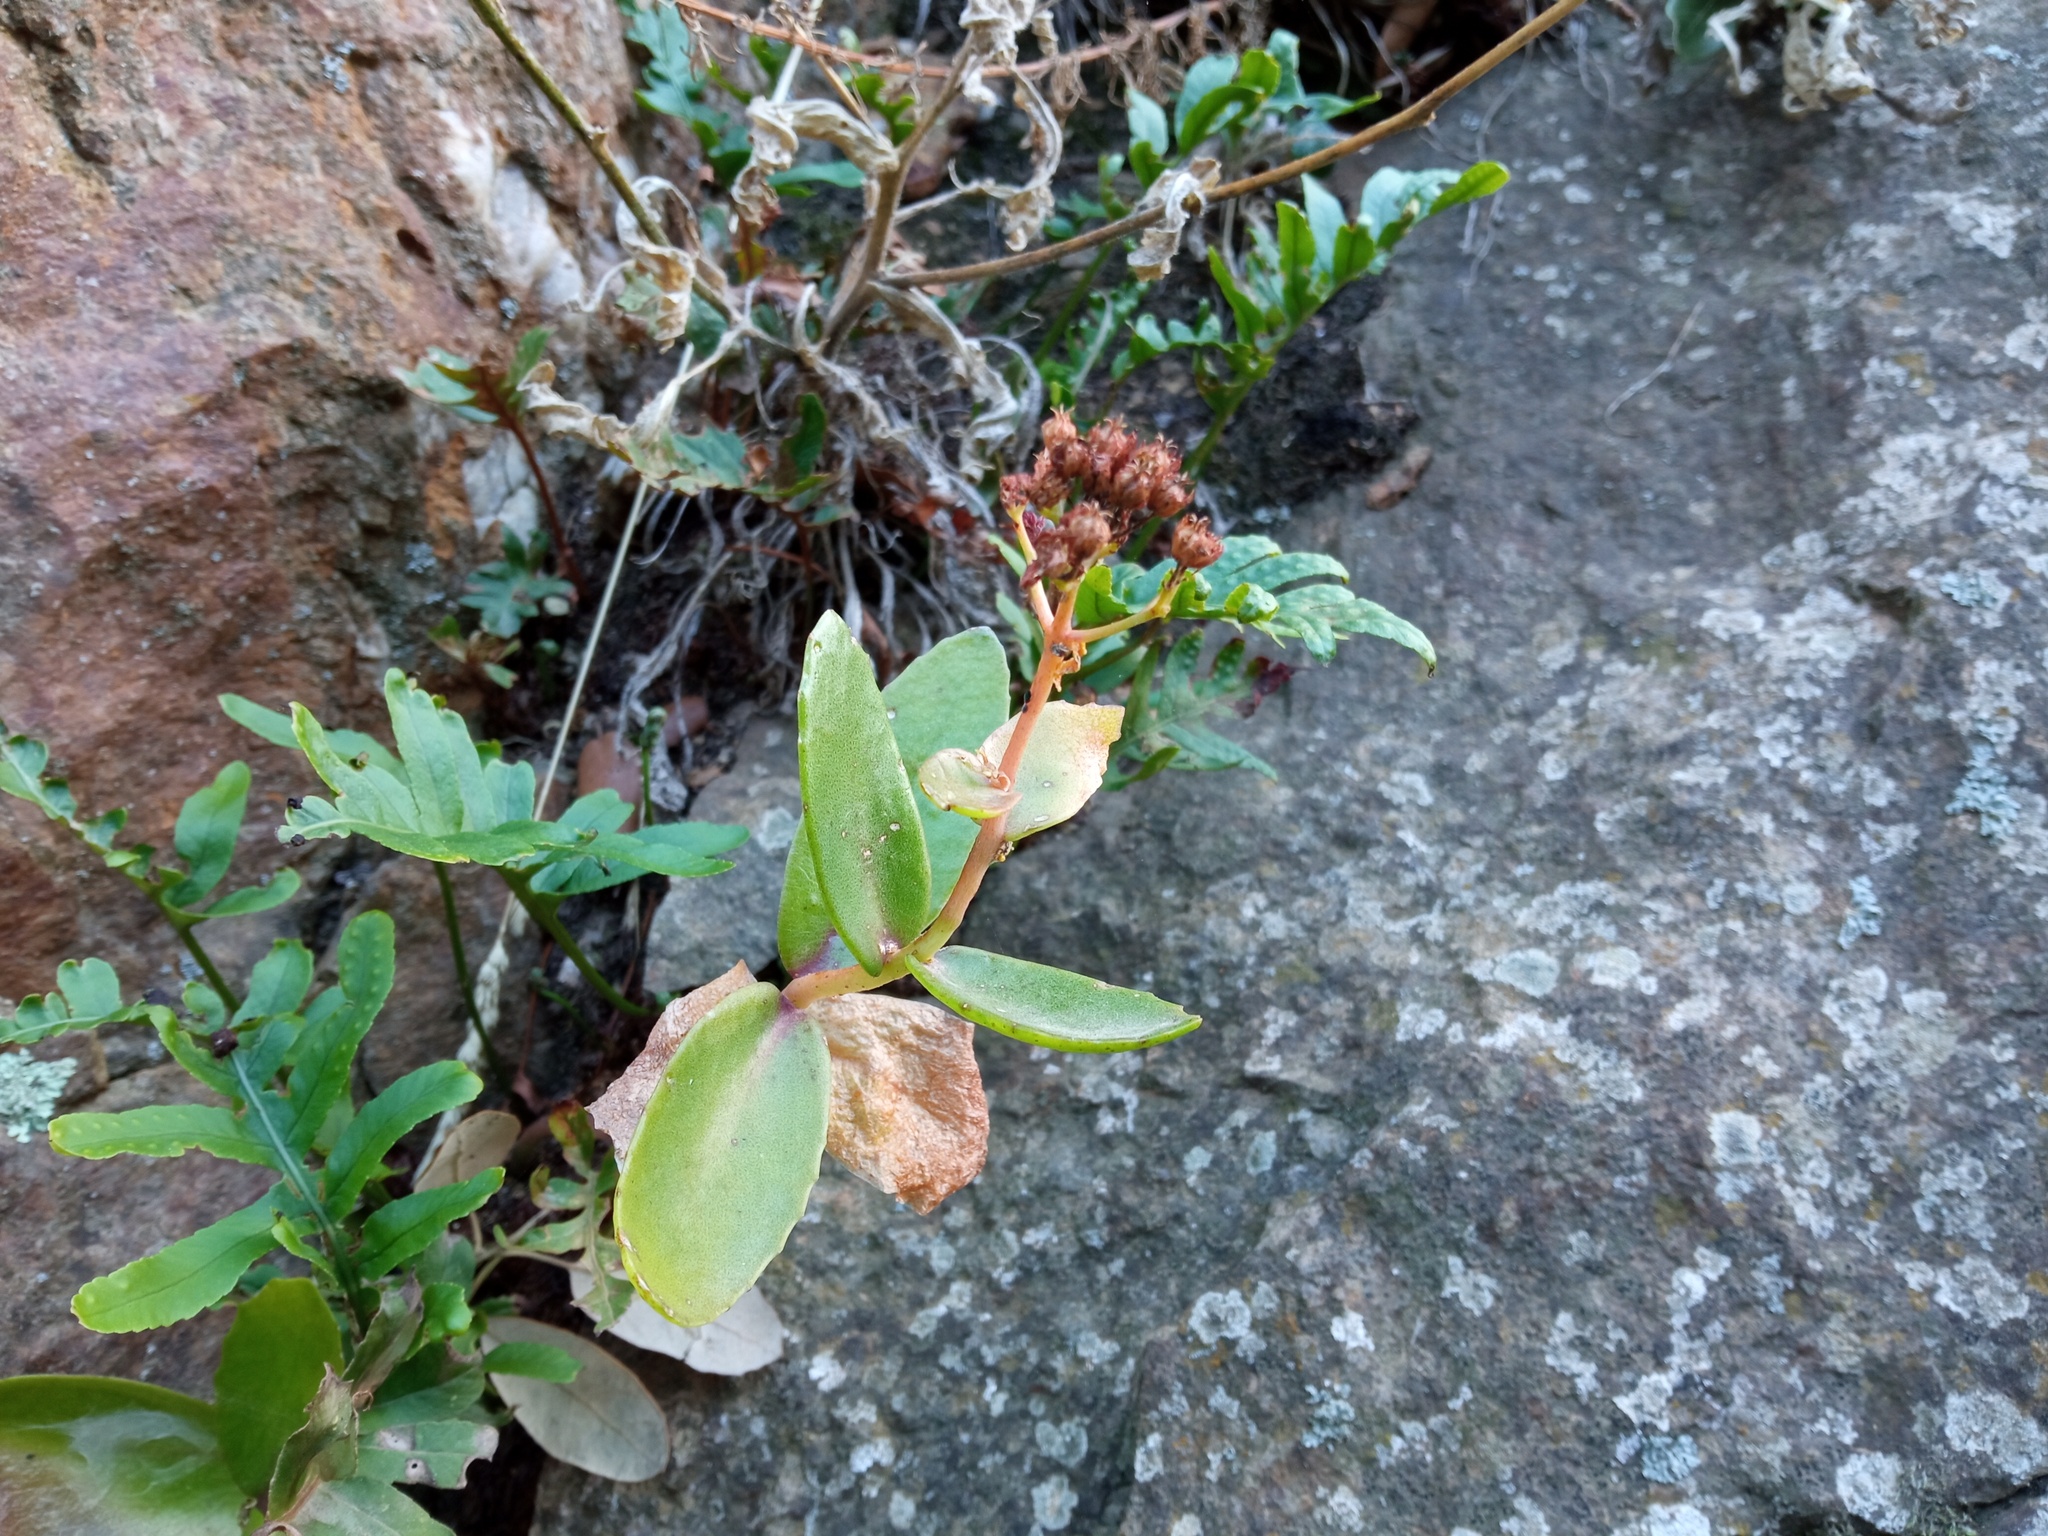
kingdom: Plantae
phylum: Tracheophyta
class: Magnoliopsida
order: Saxifragales
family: Crassulaceae
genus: Hylotelephium
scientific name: Hylotelephium maximum
